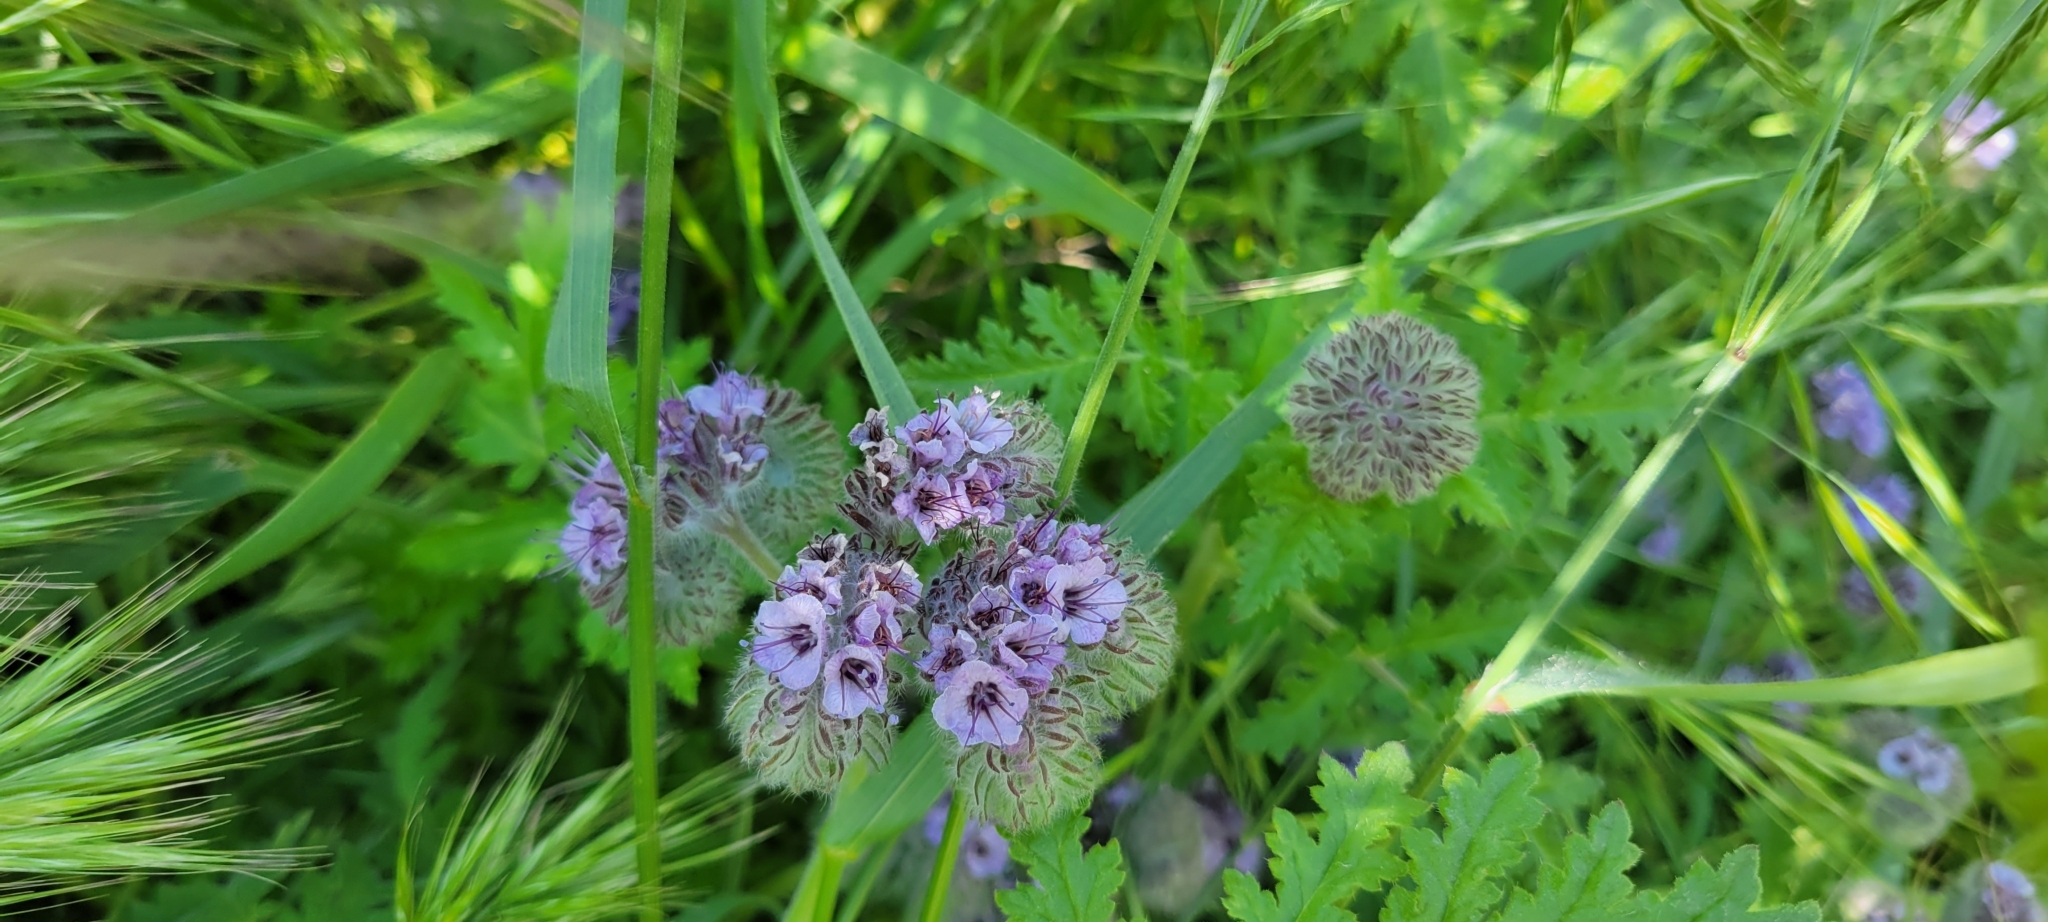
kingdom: Plantae
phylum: Tracheophyta
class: Magnoliopsida
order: Boraginales
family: Hydrophyllaceae
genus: Phacelia
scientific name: Phacelia hubbyi
